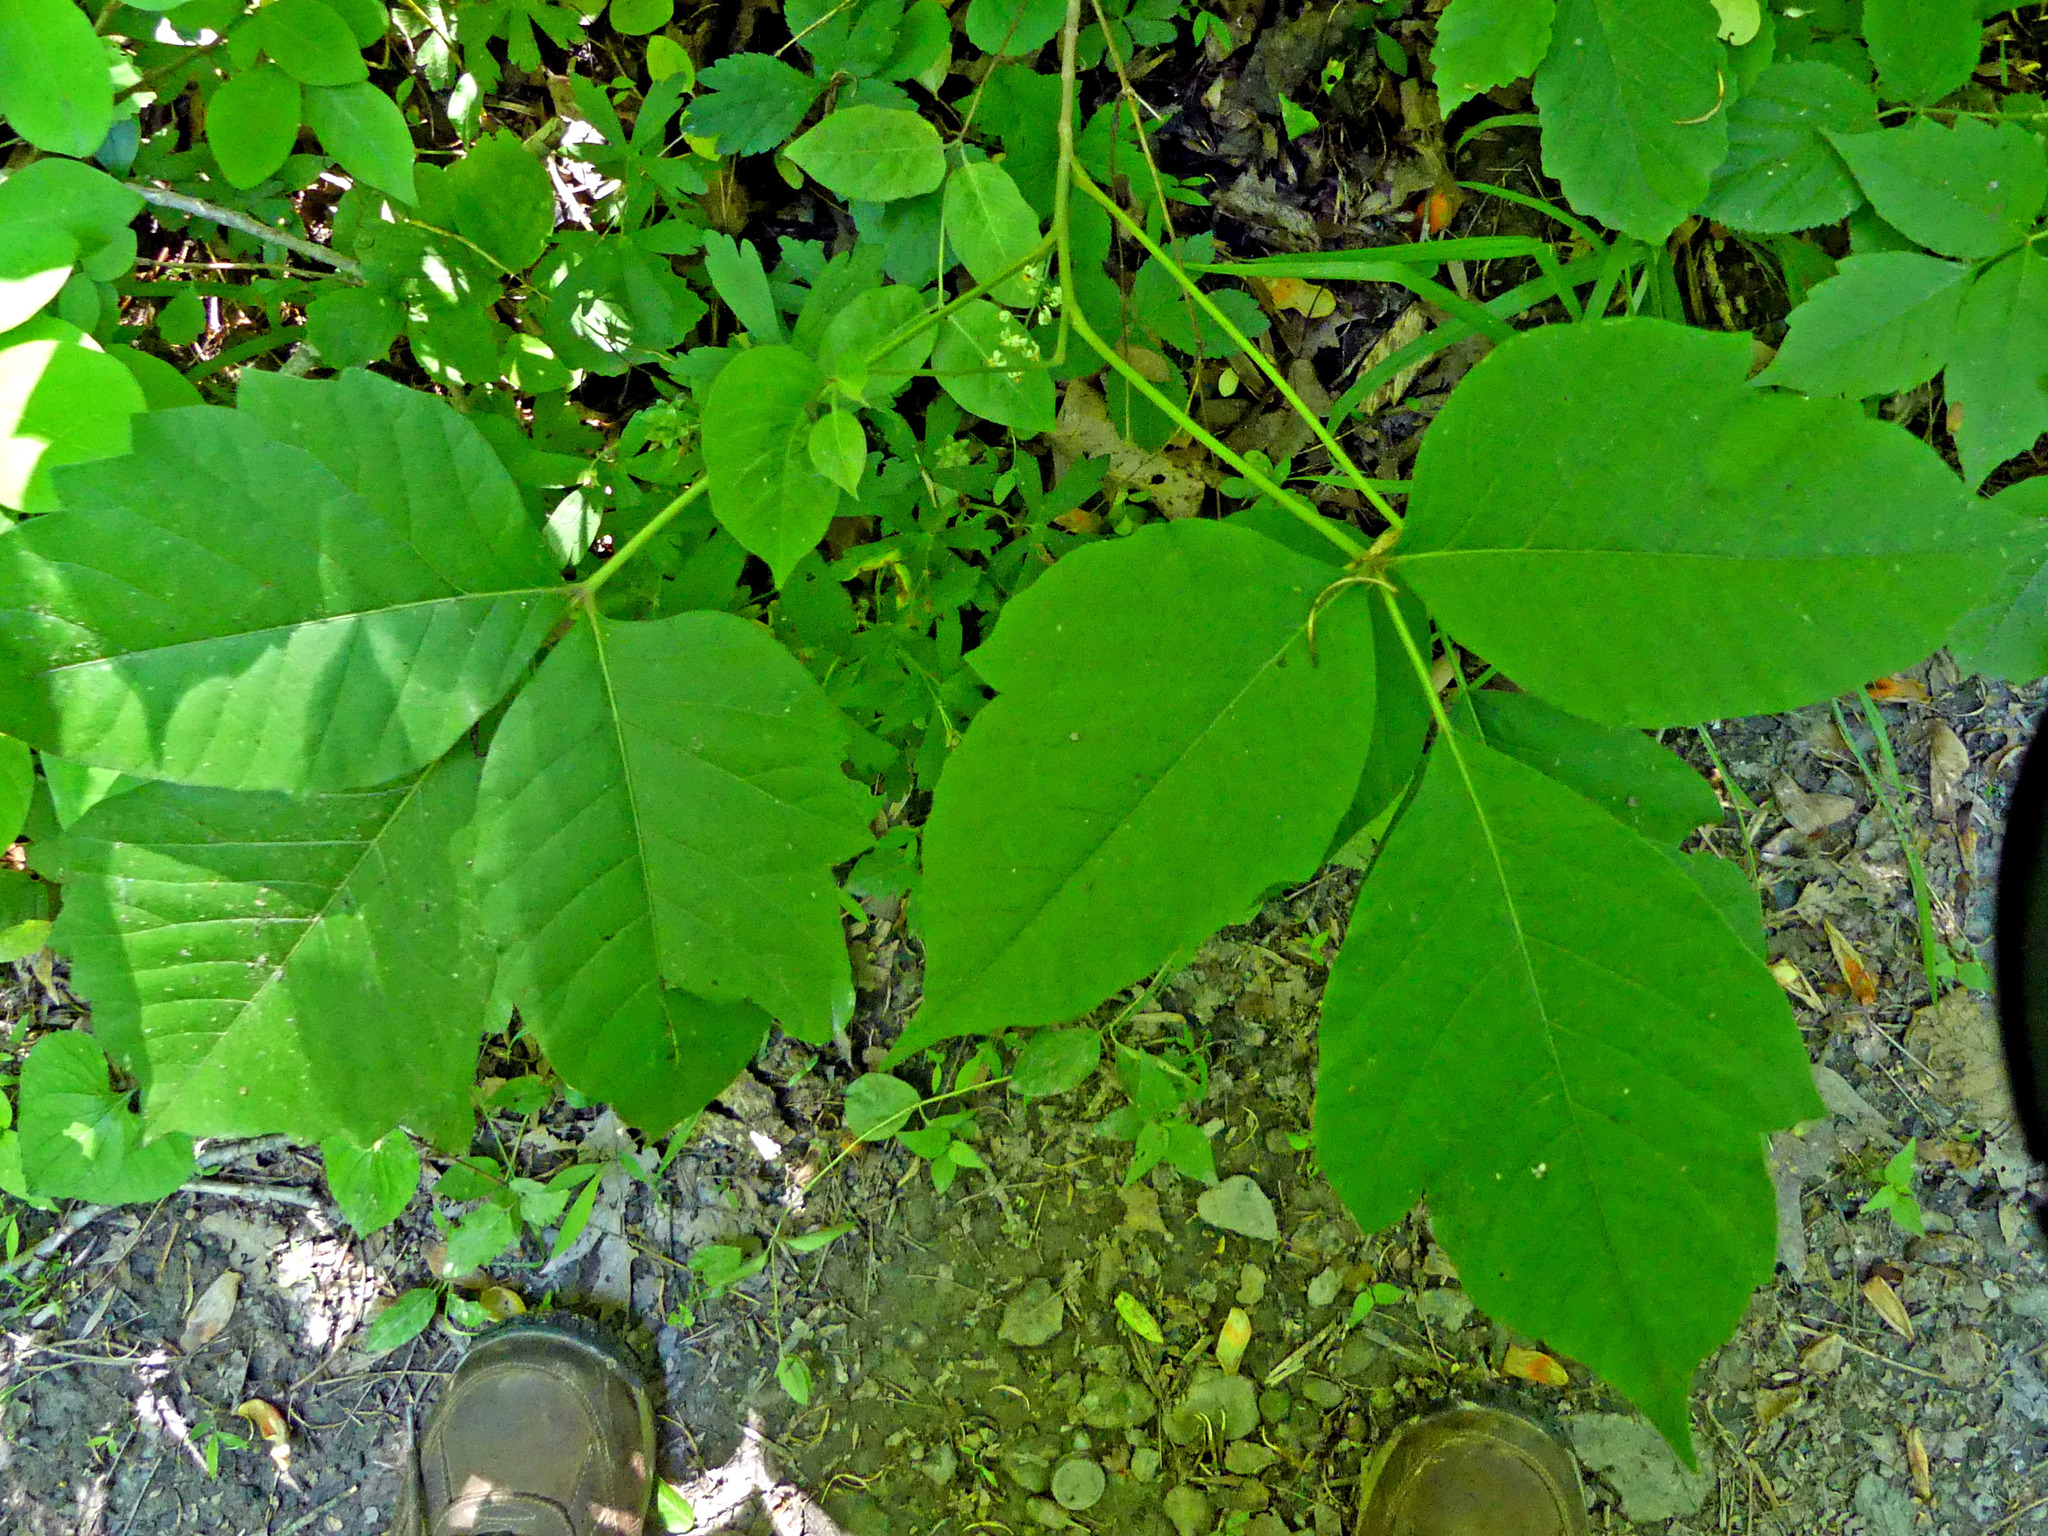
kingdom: Plantae
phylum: Tracheophyta
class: Magnoliopsida
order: Sapindales
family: Anacardiaceae
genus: Toxicodendron
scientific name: Toxicodendron radicans
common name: Poison ivy
